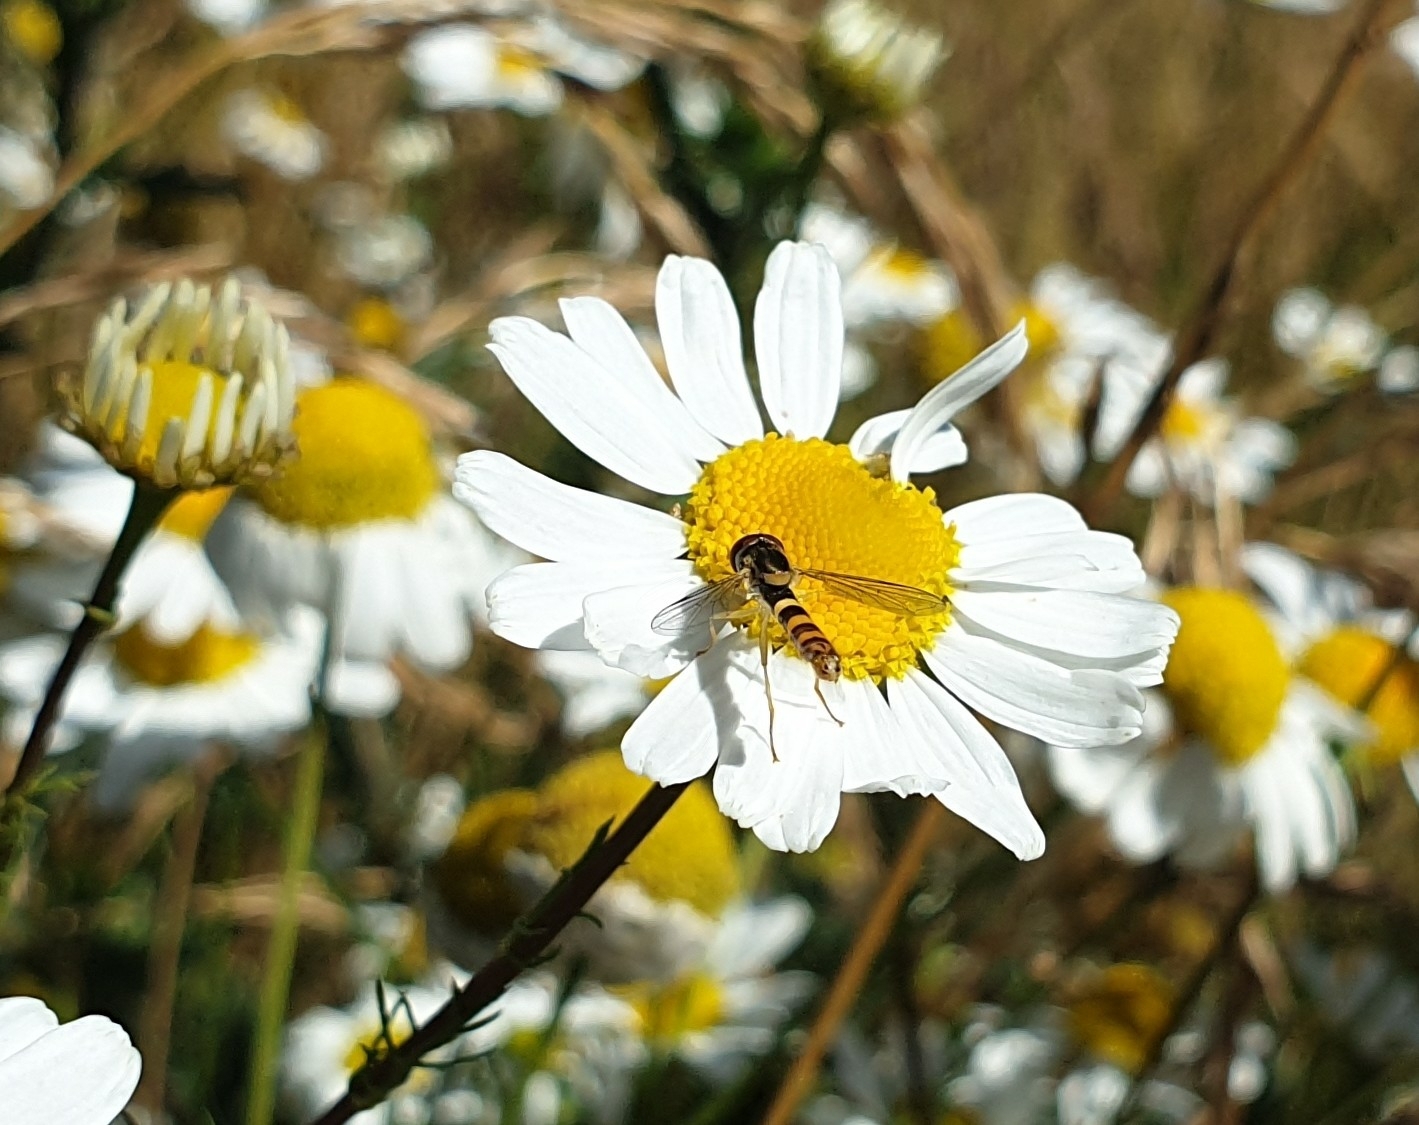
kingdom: Animalia
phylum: Arthropoda
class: Insecta
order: Diptera
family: Syrphidae
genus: Sphaerophoria
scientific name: Sphaerophoria scripta
